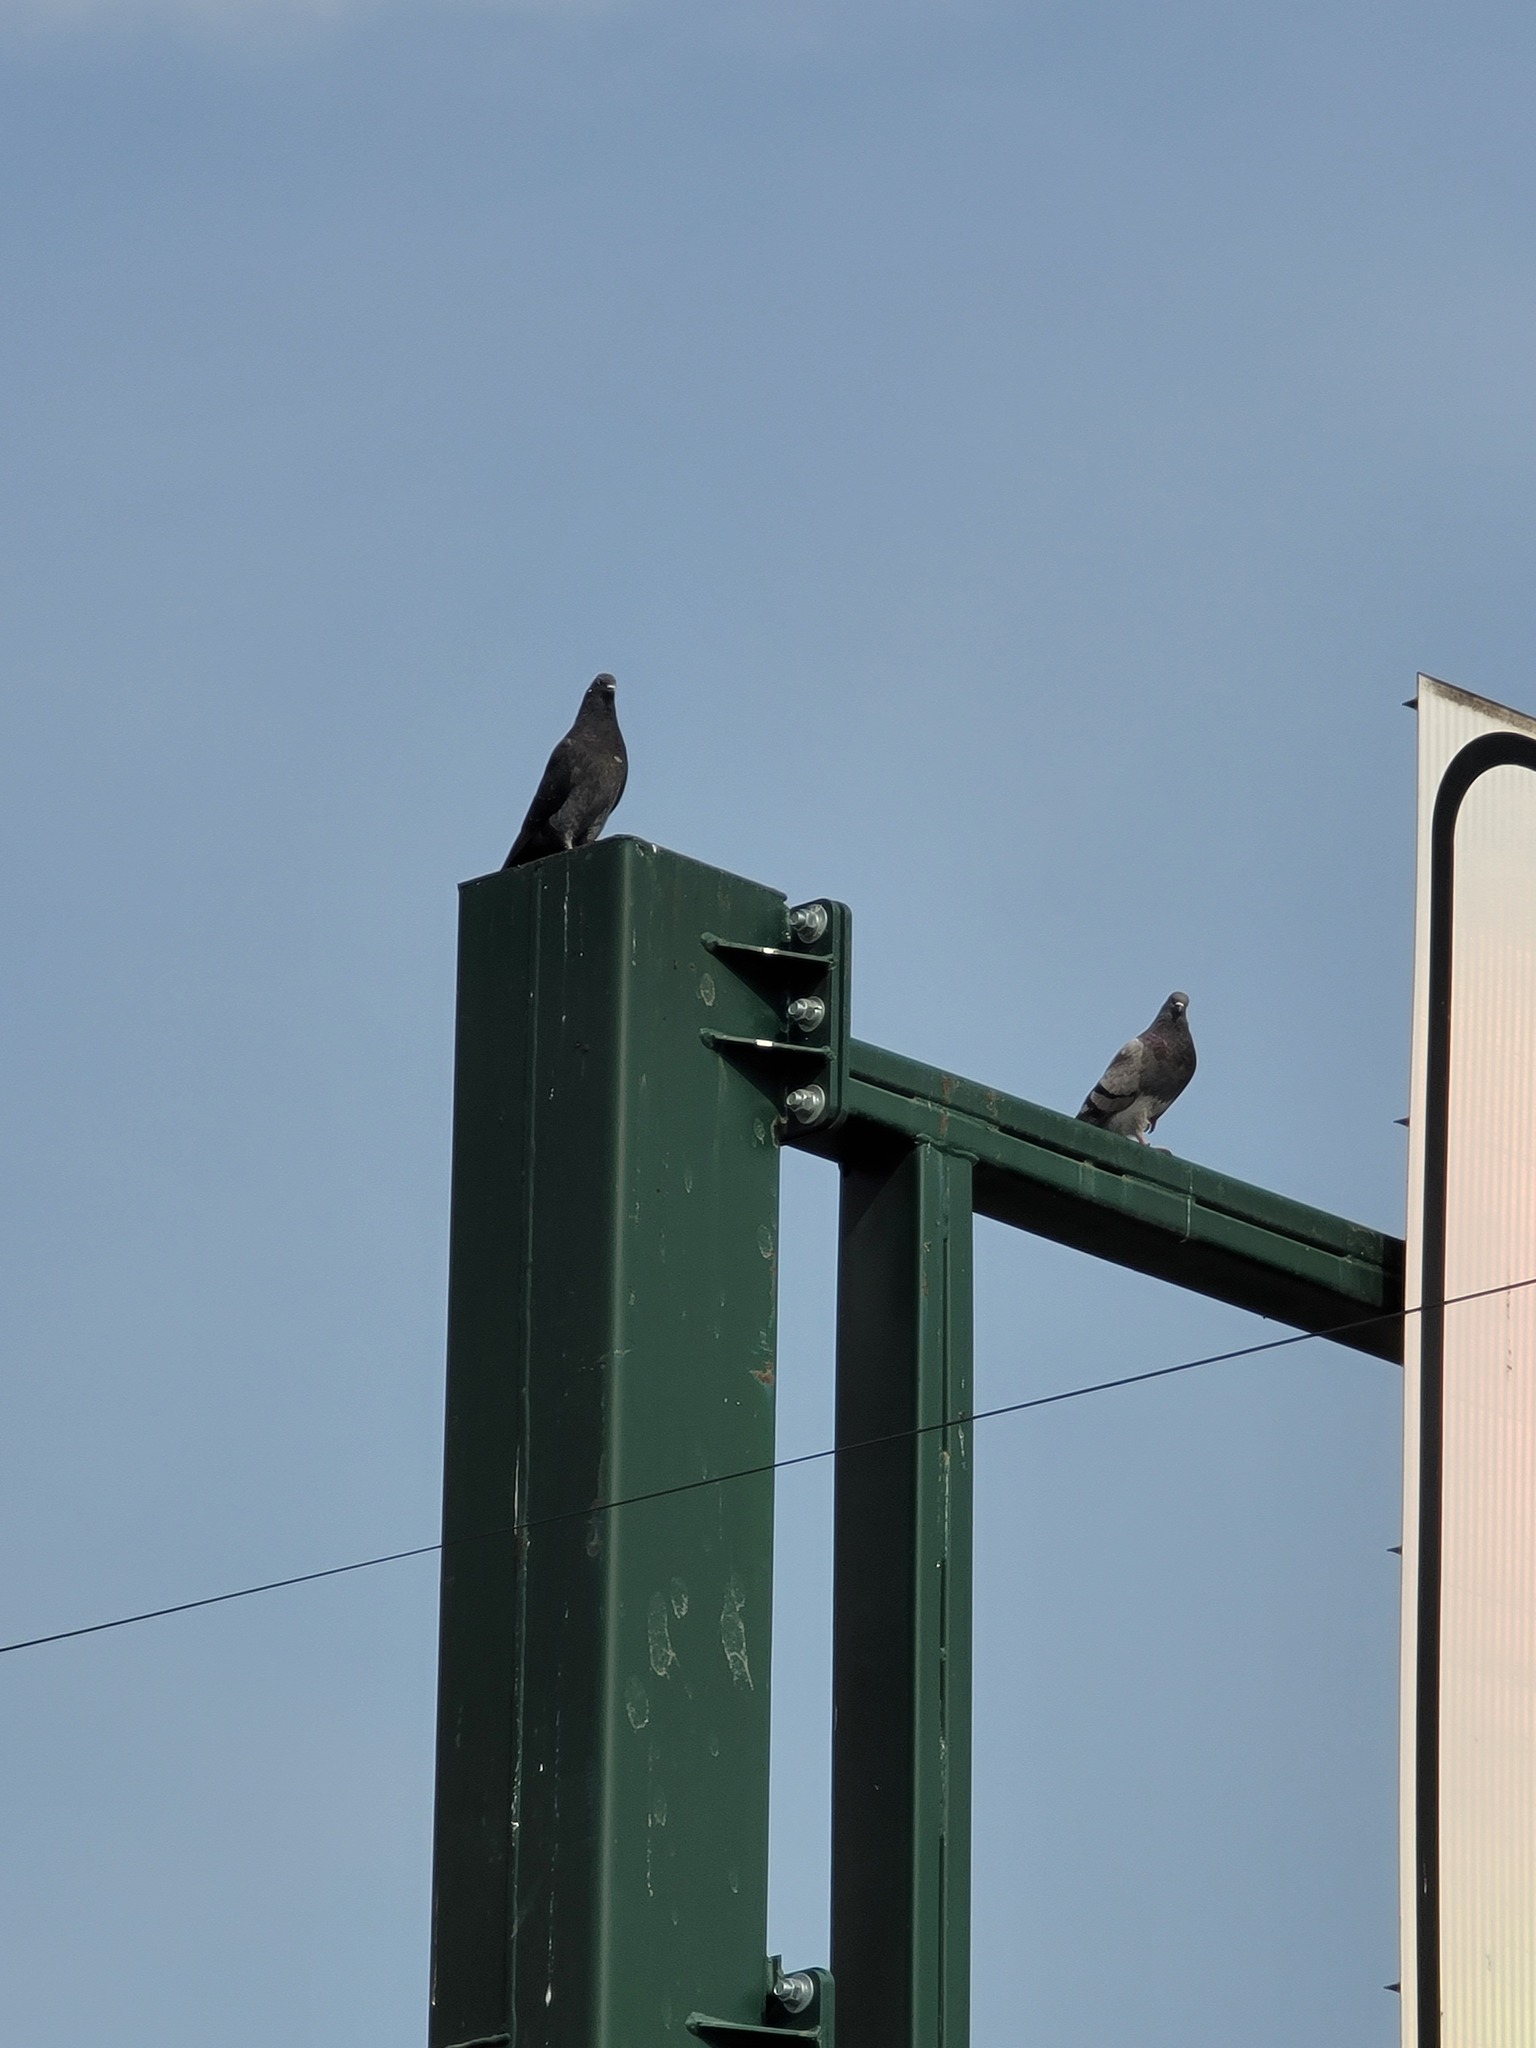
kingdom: Animalia
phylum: Chordata
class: Aves
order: Columbiformes
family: Columbidae
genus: Columba
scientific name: Columba livia
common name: Rock pigeon
